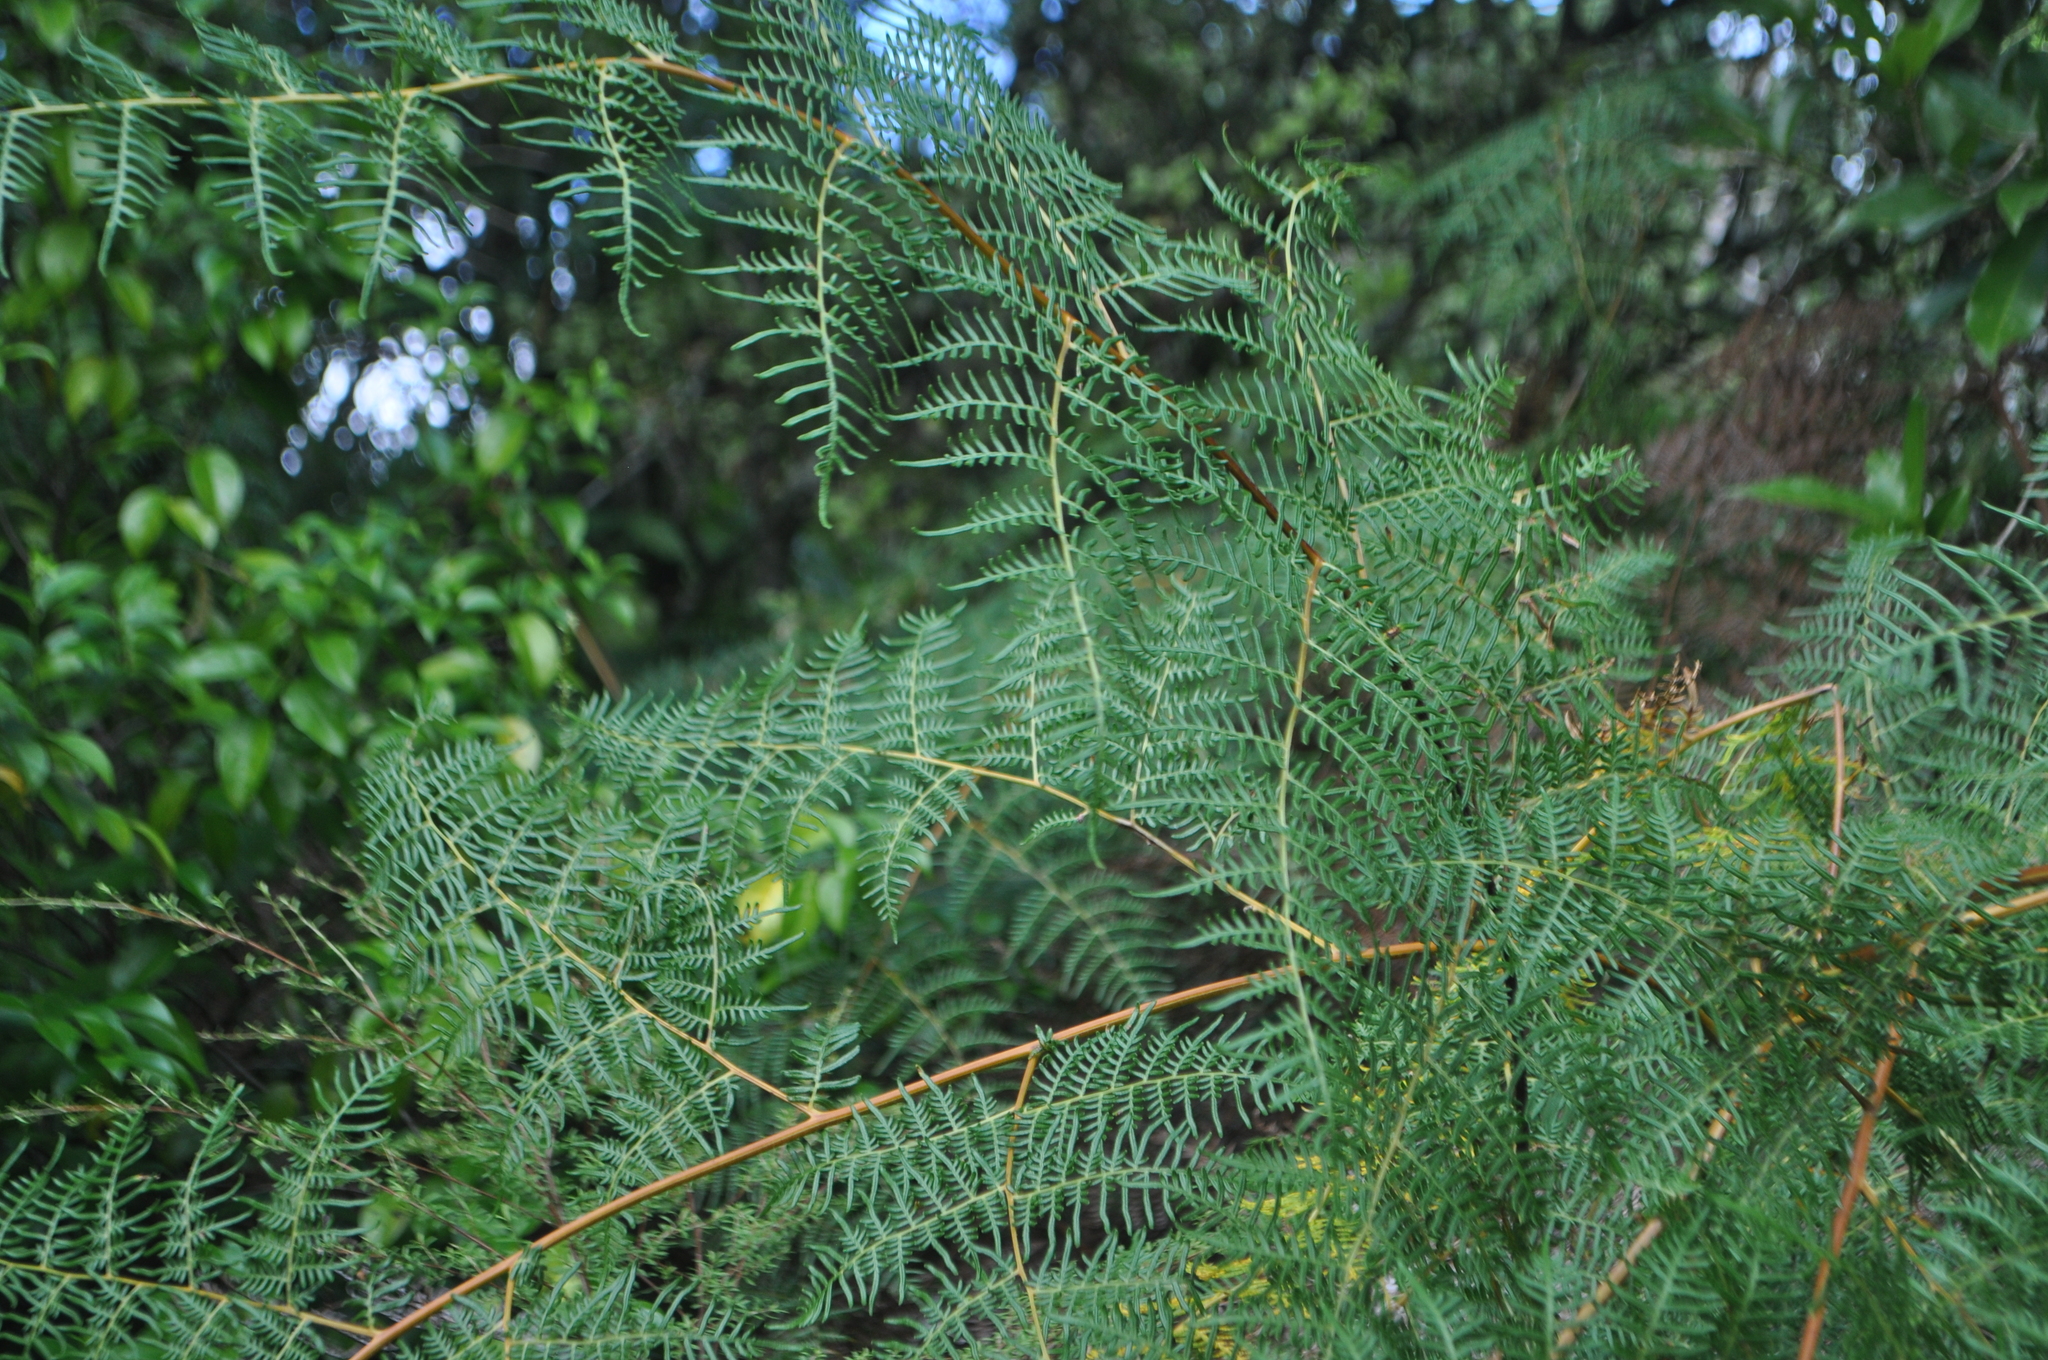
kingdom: Plantae
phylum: Tracheophyta
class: Polypodiopsida
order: Polypodiales
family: Dennstaedtiaceae
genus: Pteridium
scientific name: Pteridium esculentum
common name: Bracken fern
